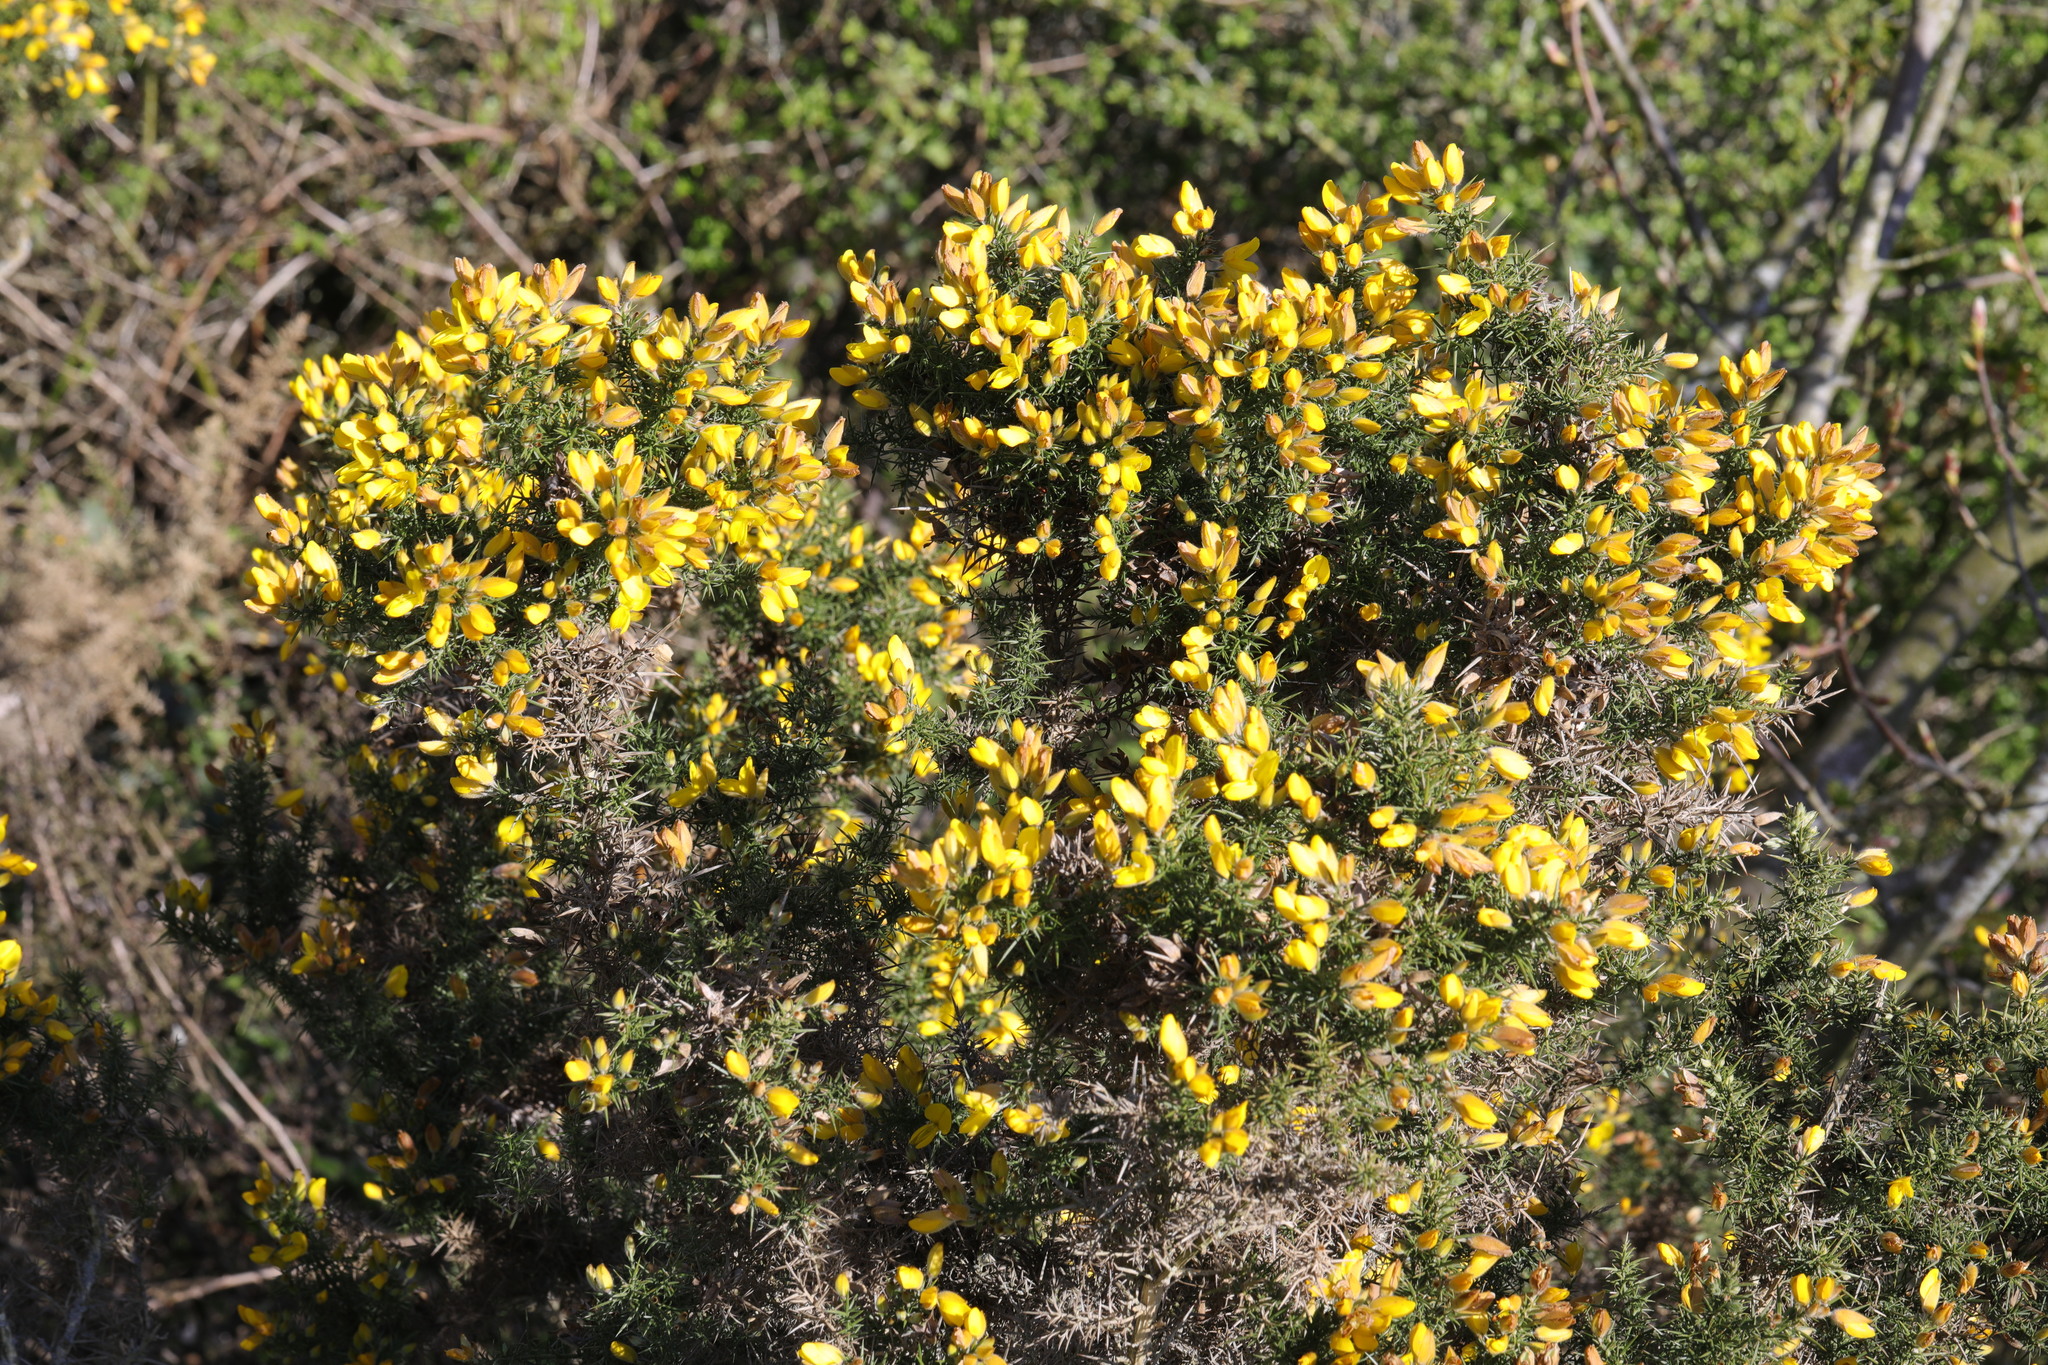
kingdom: Plantae
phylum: Tracheophyta
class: Magnoliopsida
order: Fabales
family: Fabaceae
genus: Ulex
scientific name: Ulex europaeus
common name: Common gorse
